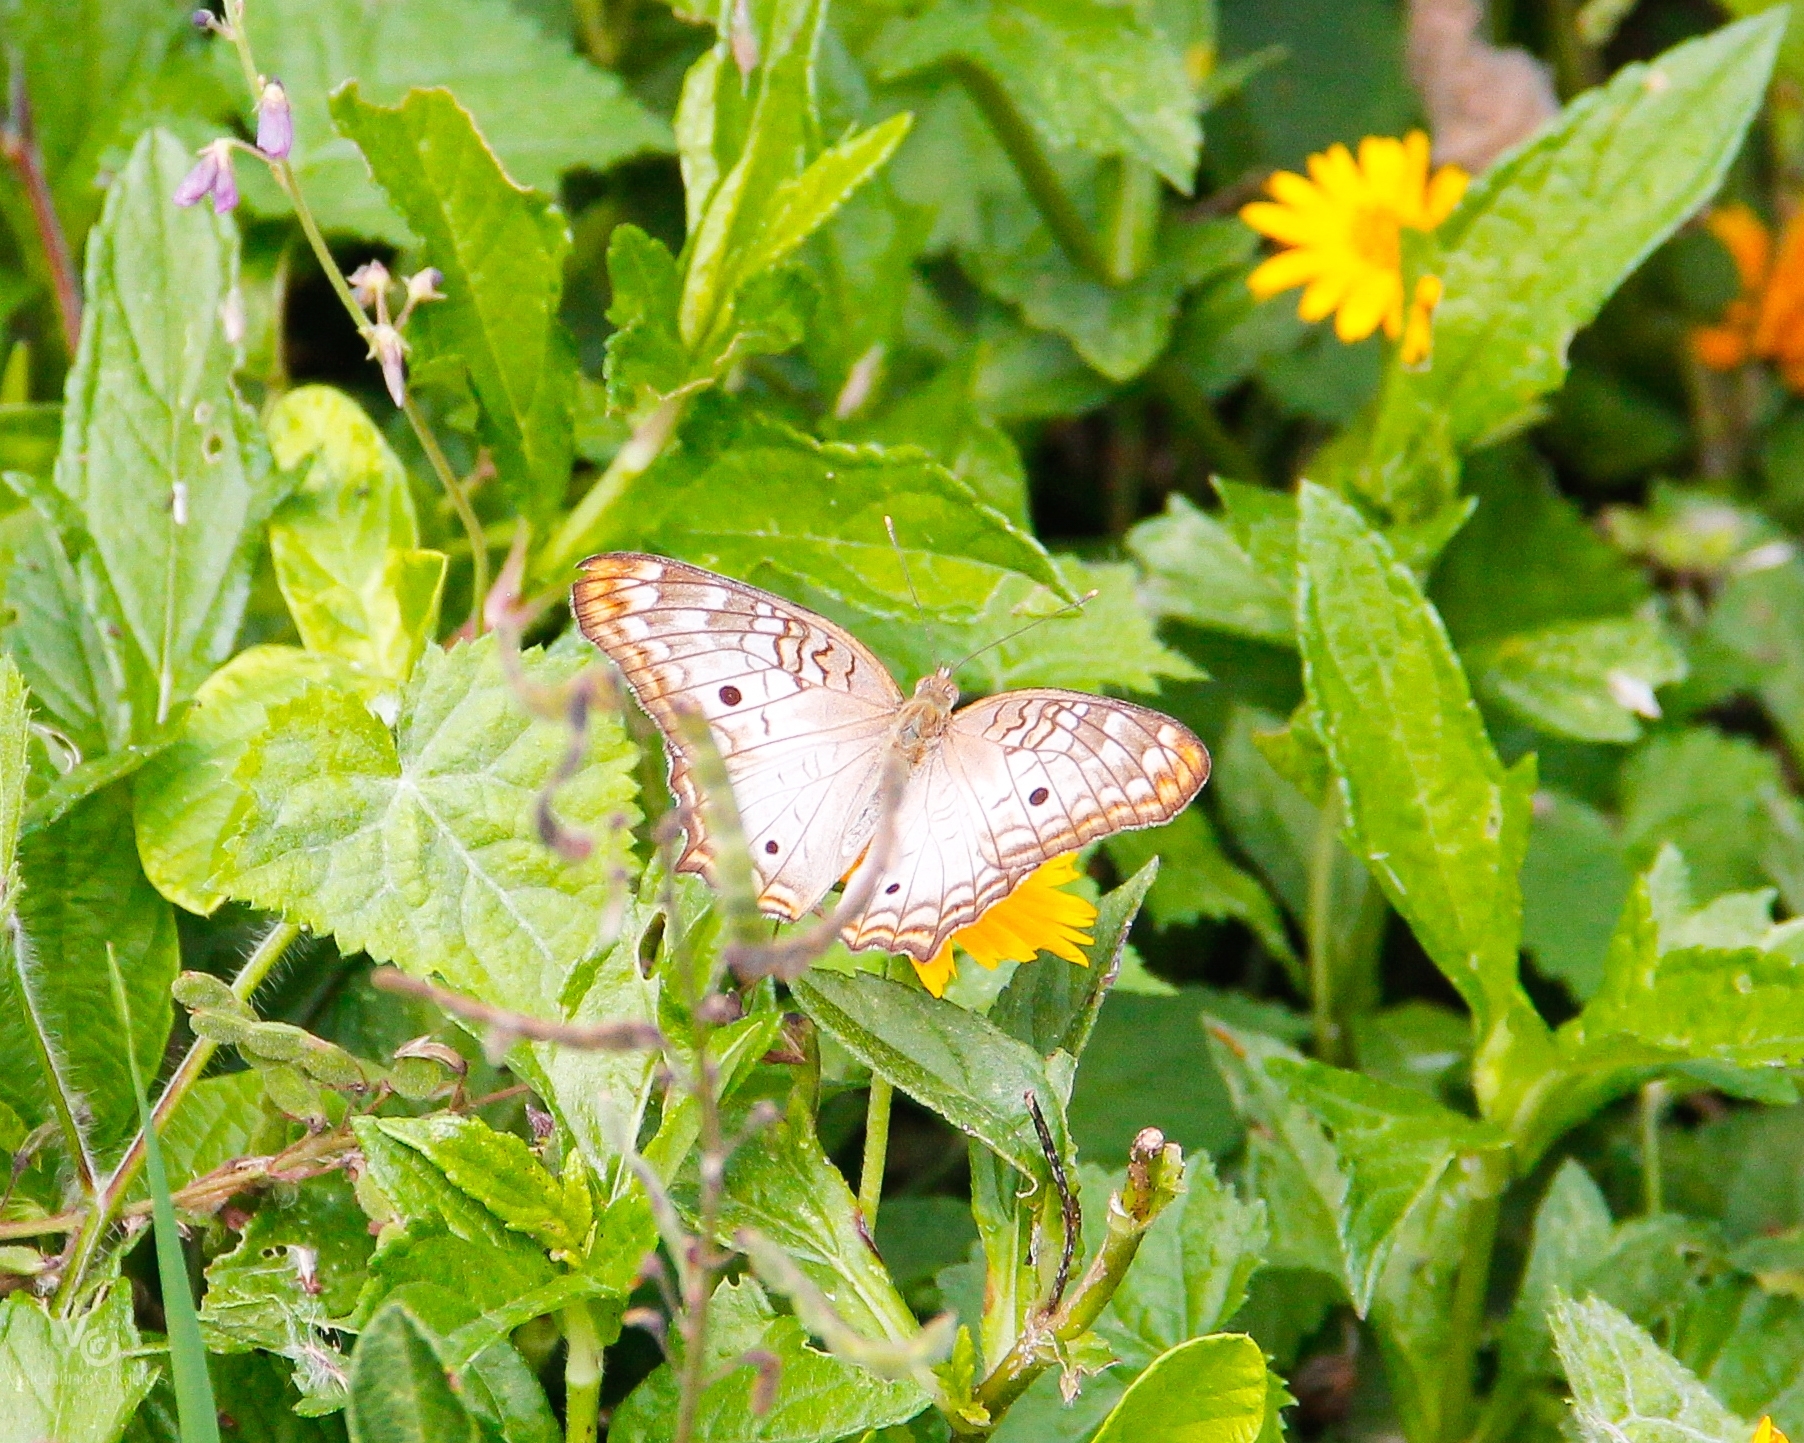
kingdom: Animalia
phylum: Arthropoda
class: Insecta
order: Lepidoptera
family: Nymphalidae
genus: Anartia
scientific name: Anartia jatrophae
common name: White peacock
